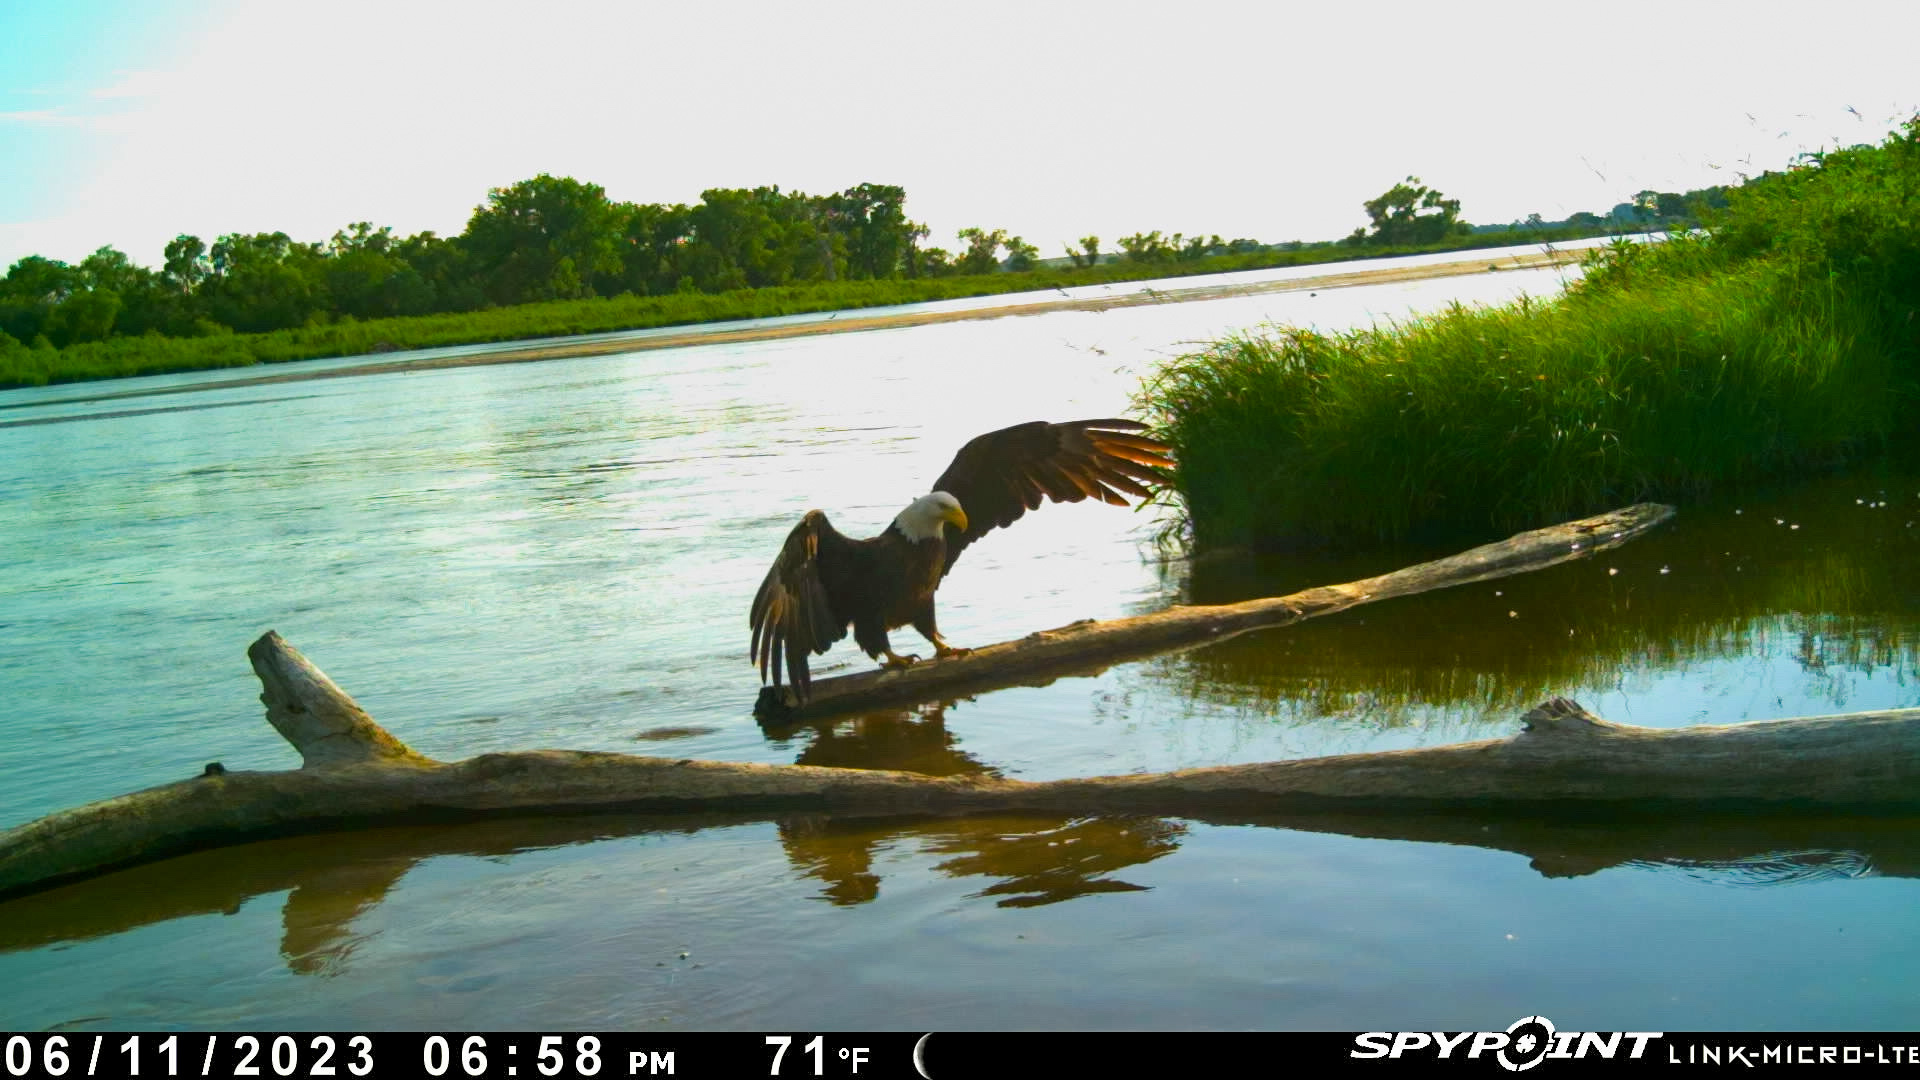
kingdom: Animalia
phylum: Chordata
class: Aves
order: Accipitriformes
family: Accipitridae
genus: Haliaeetus
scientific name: Haliaeetus leucocephalus
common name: Bald eagle
